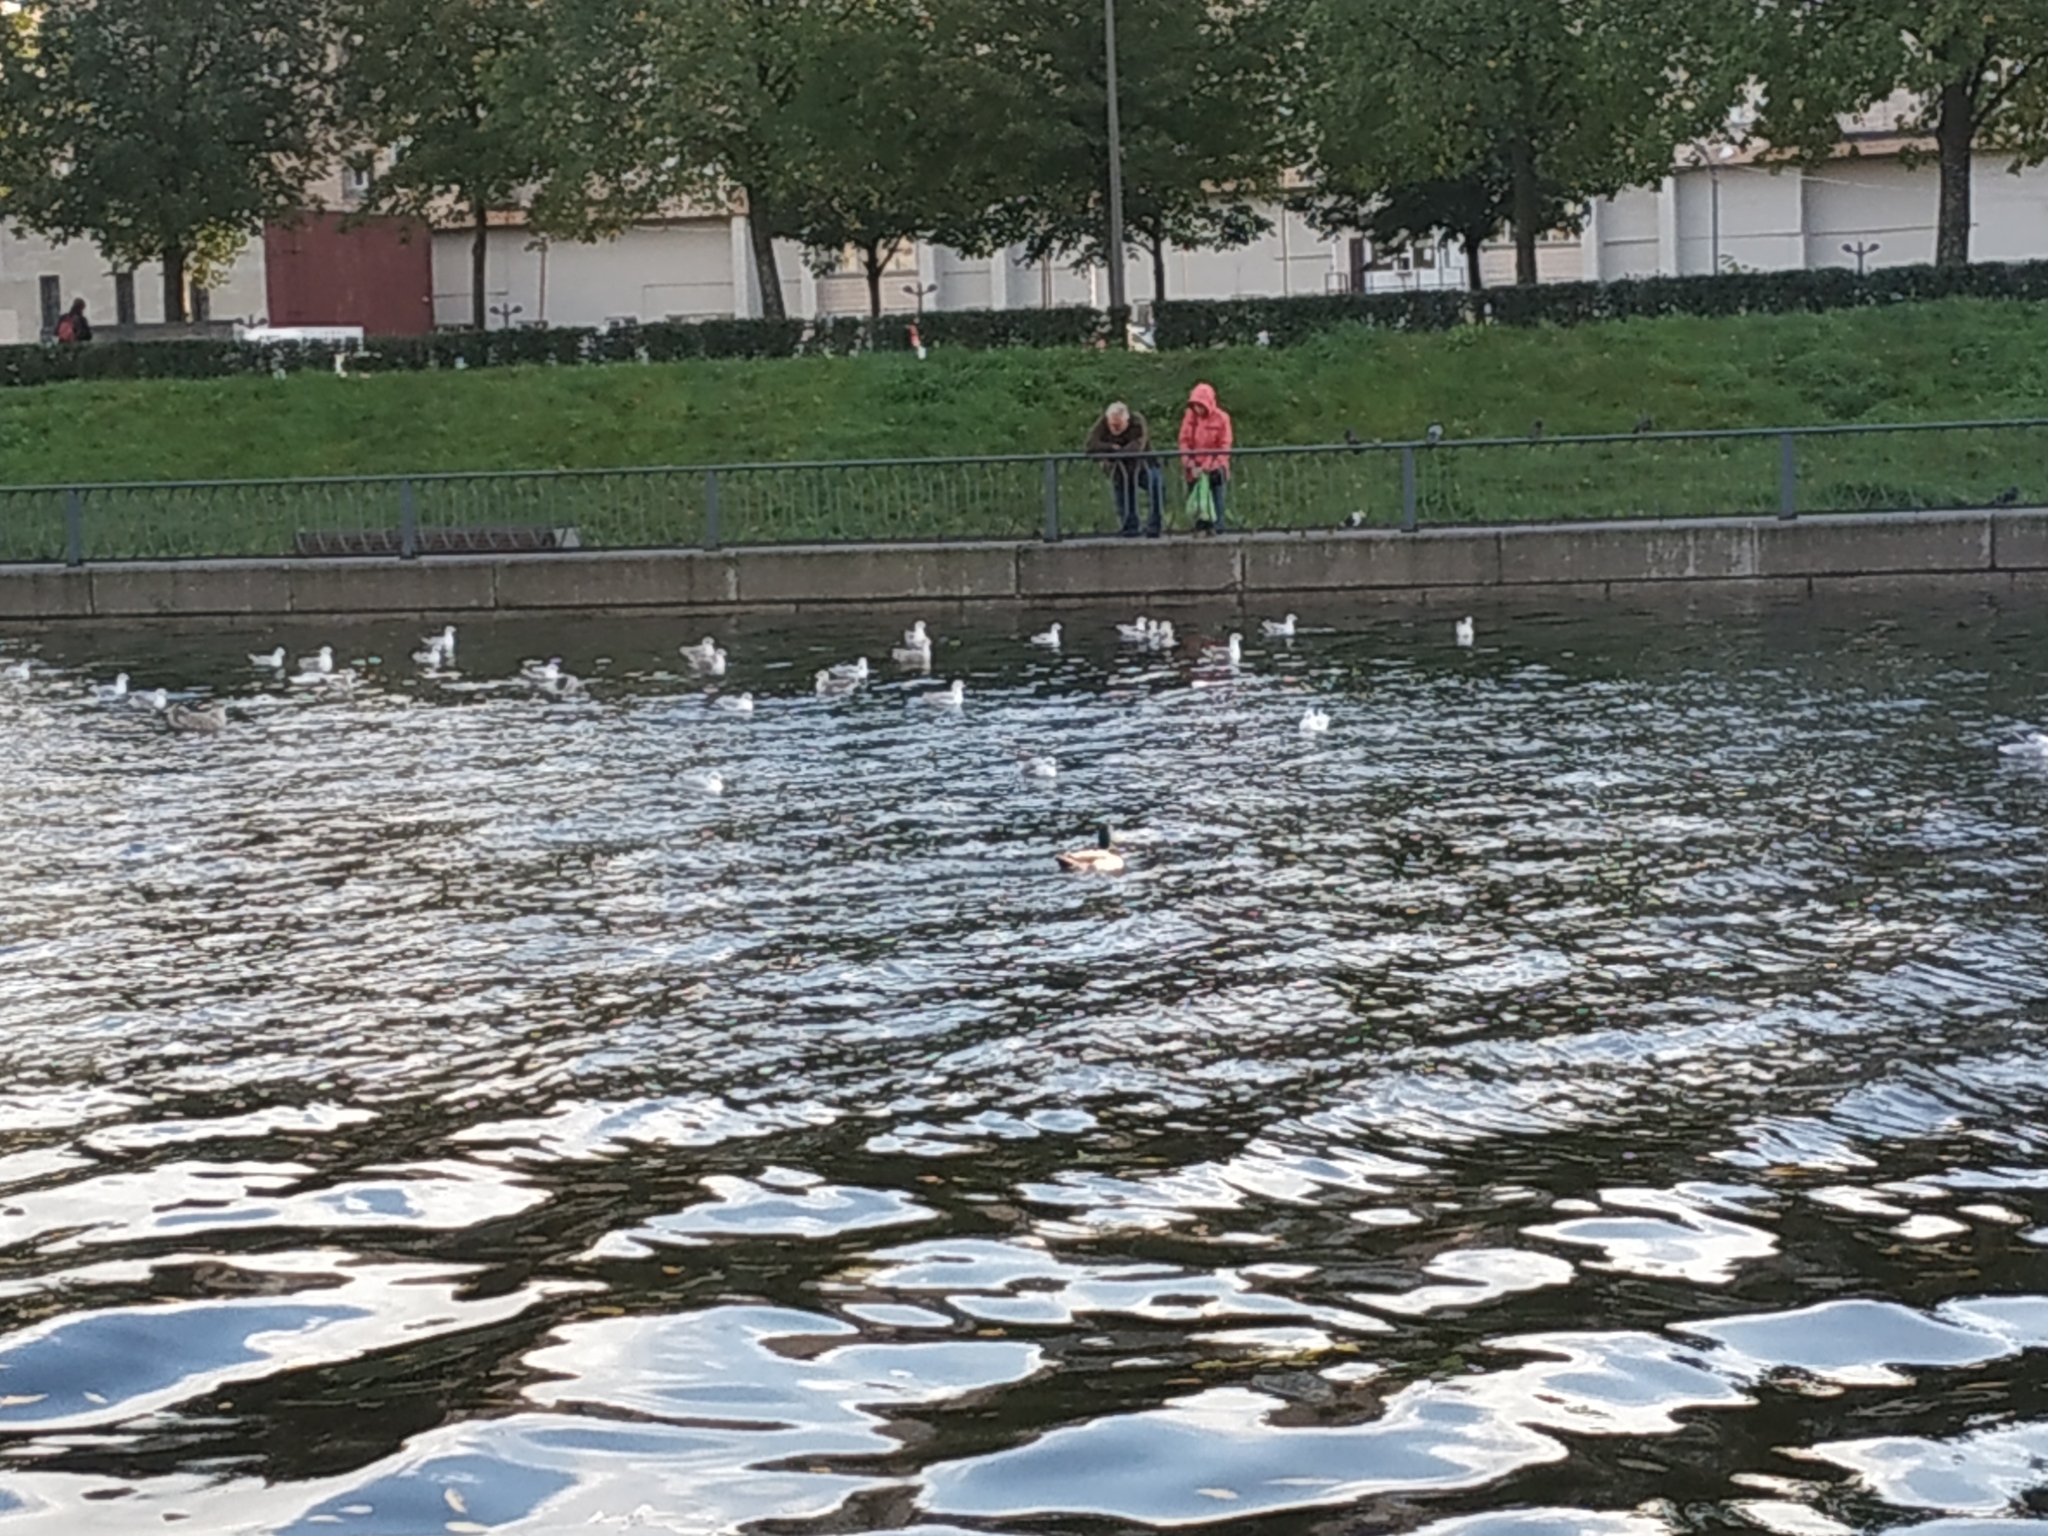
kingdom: Animalia
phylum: Chordata
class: Aves
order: Charadriiformes
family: Laridae
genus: Chroicocephalus
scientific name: Chroicocephalus ridibundus
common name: Black-headed gull
